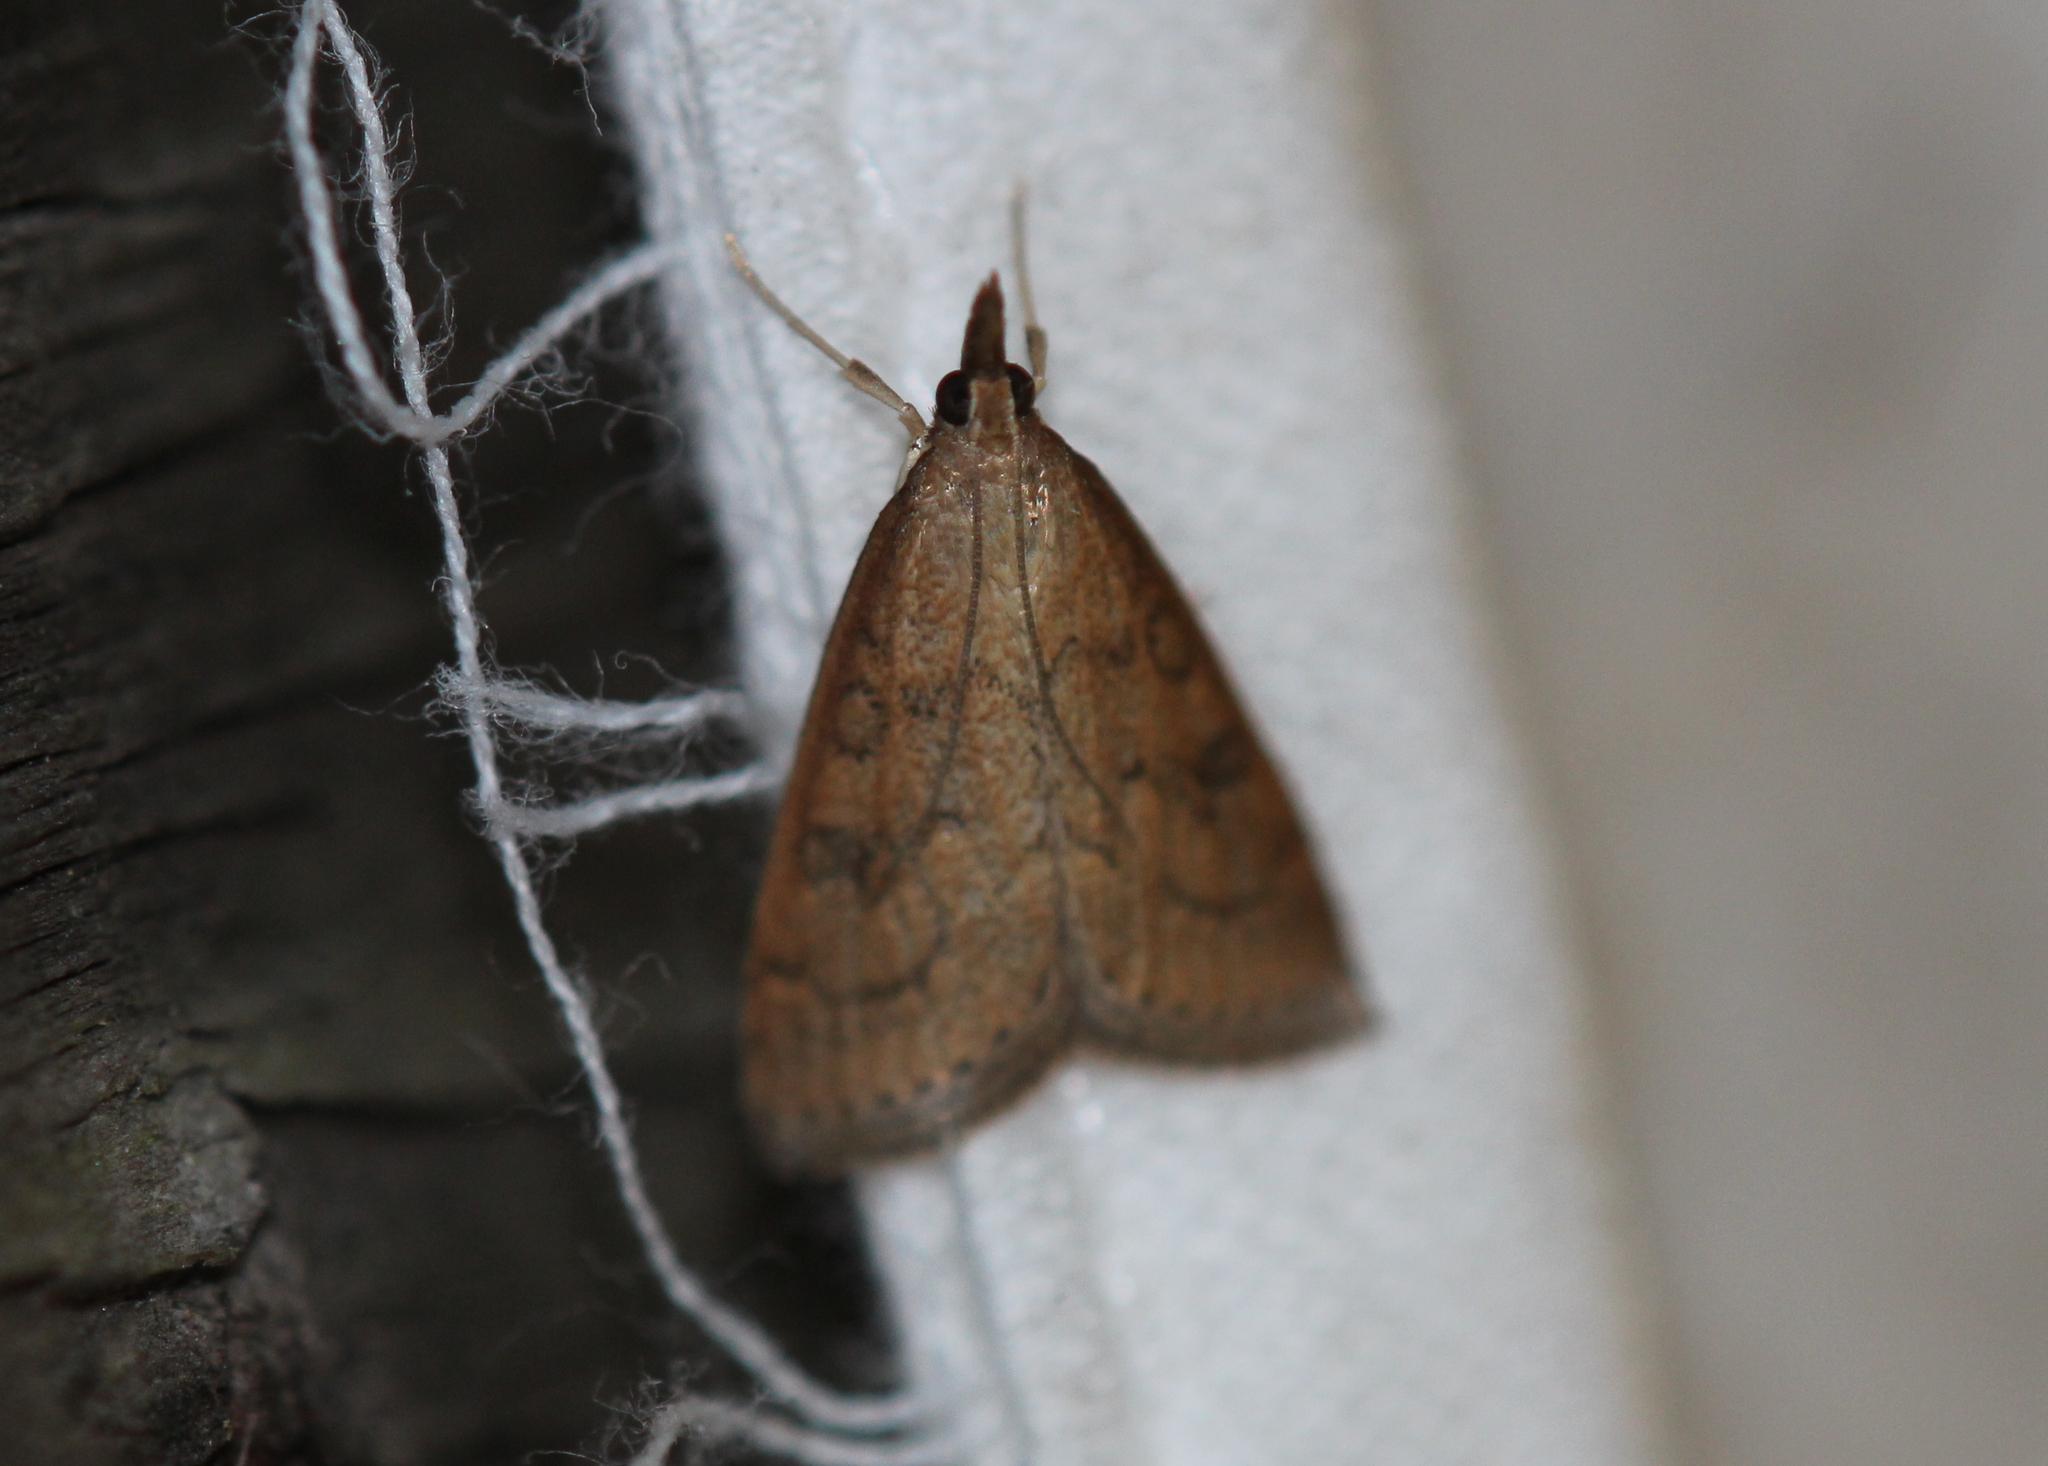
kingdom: Animalia
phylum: Arthropoda
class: Insecta
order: Lepidoptera
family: Crambidae
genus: Udea
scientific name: Udea rubigalis
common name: Celery leaftier moth
